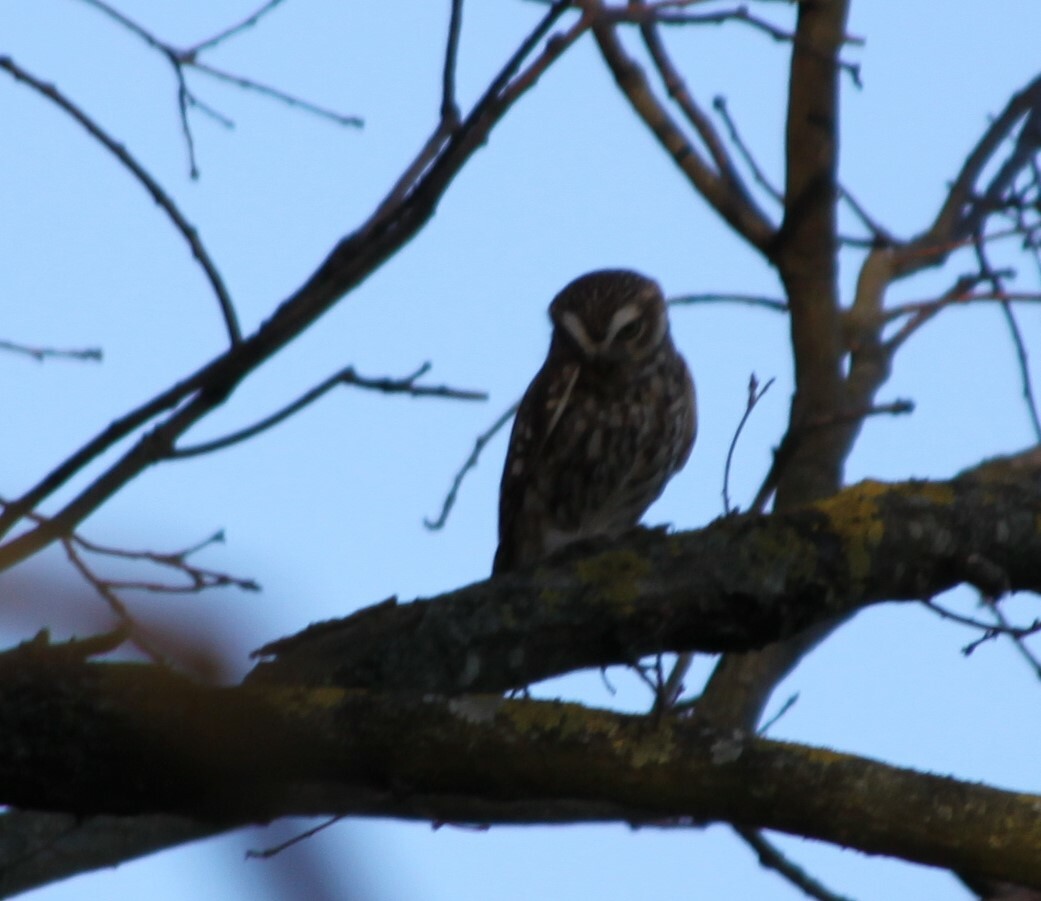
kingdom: Animalia
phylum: Chordata
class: Aves
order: Strigiformes
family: Strigidae
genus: Athene
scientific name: Athene noctua
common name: Little owl
